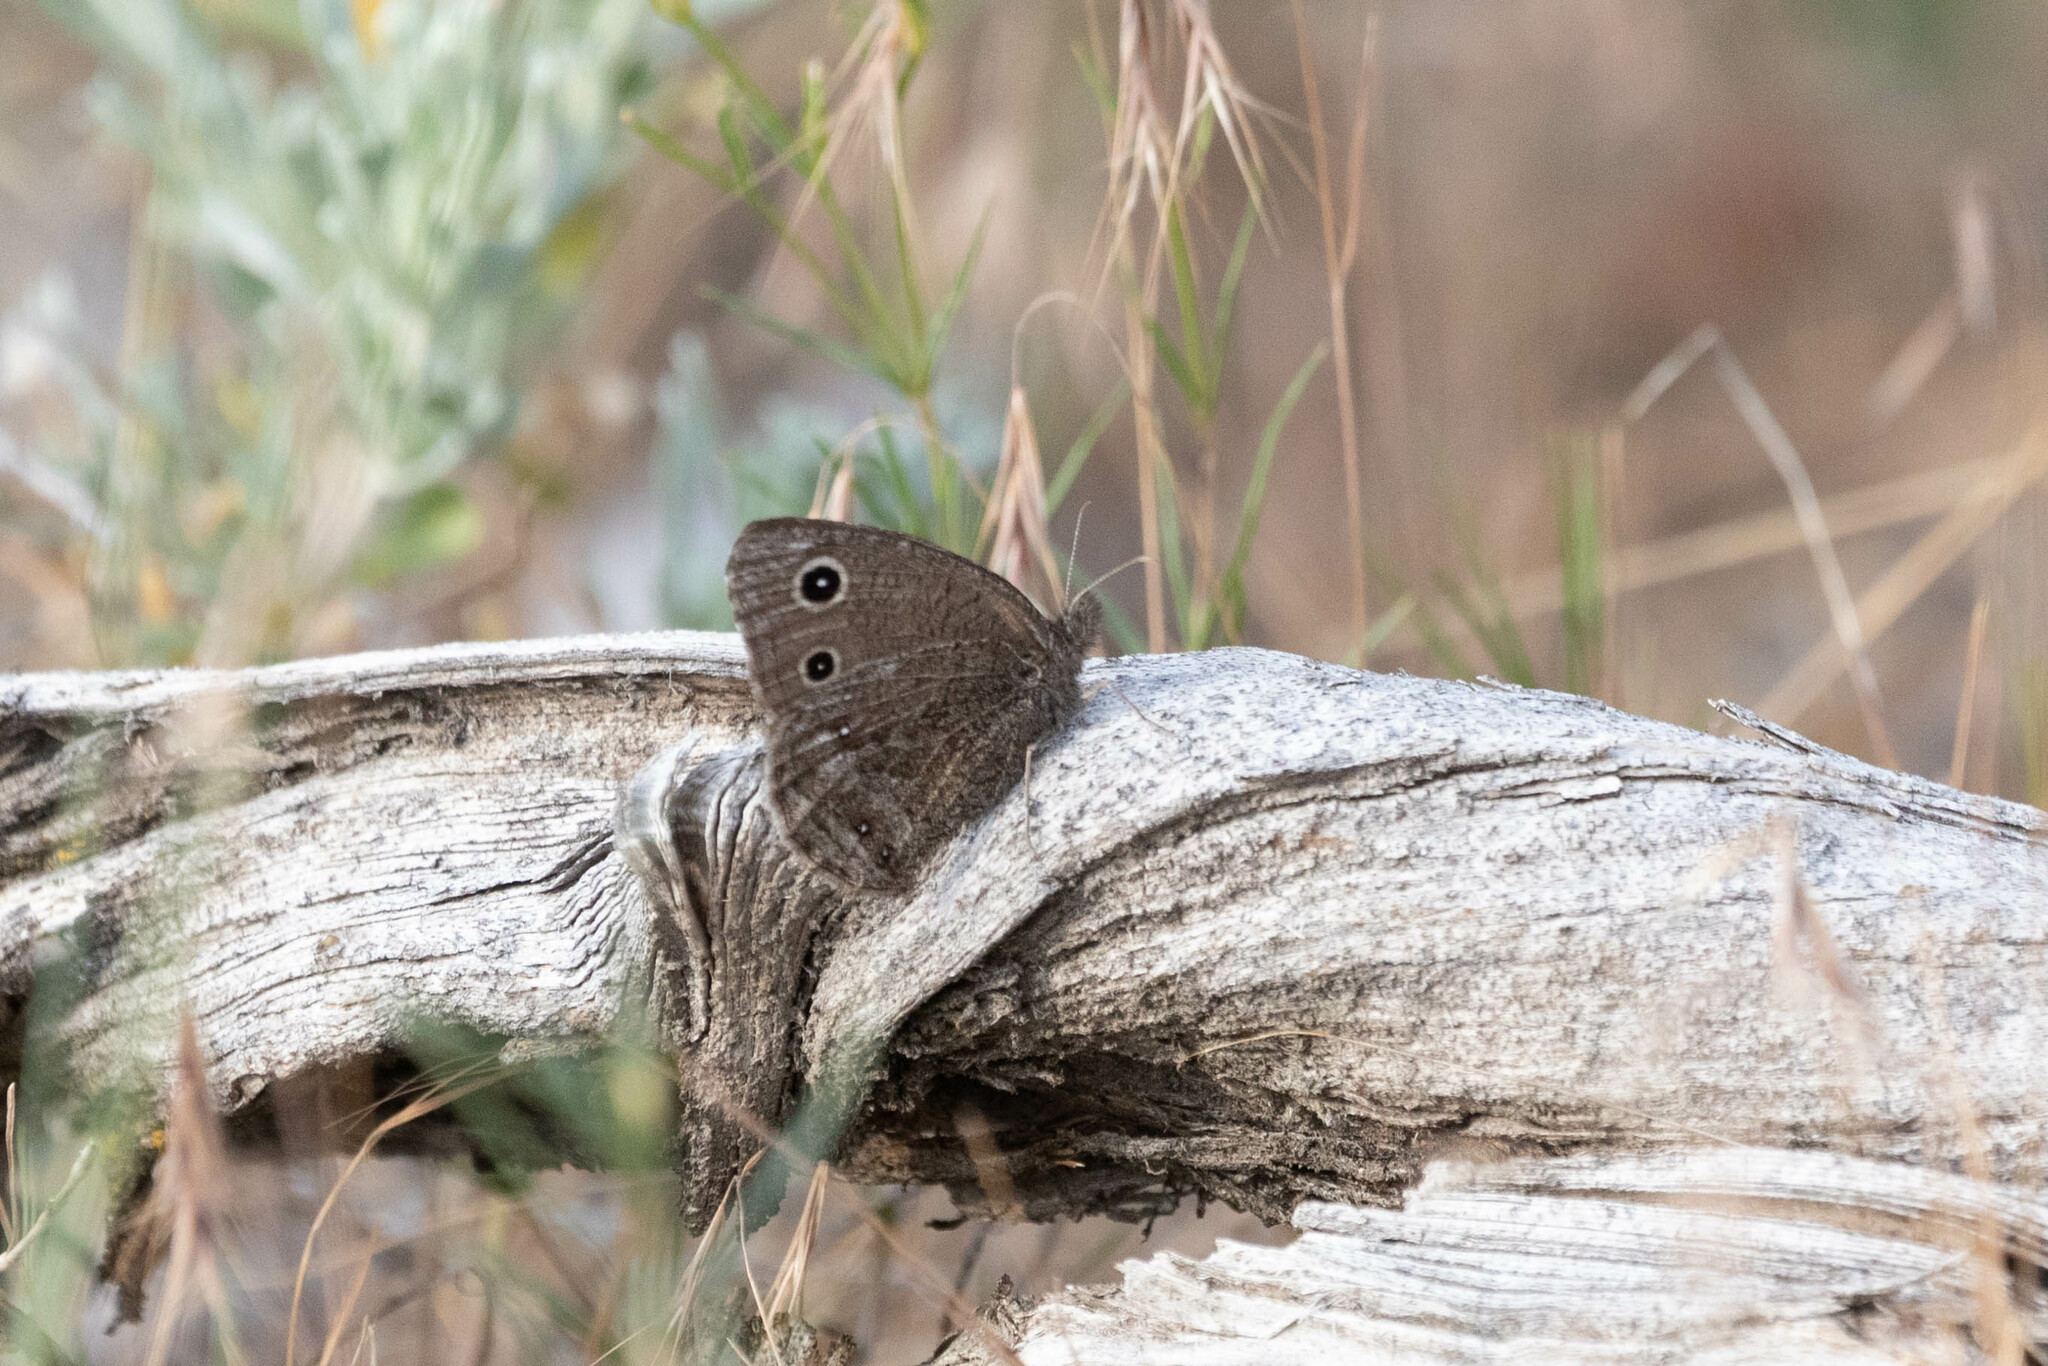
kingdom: Animalia
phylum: Arthropoda
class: Insecta
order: Lepidoptera
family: Nymphalidae
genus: Cercyonis
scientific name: Cercyonis oetus
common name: Small wood-nymph
